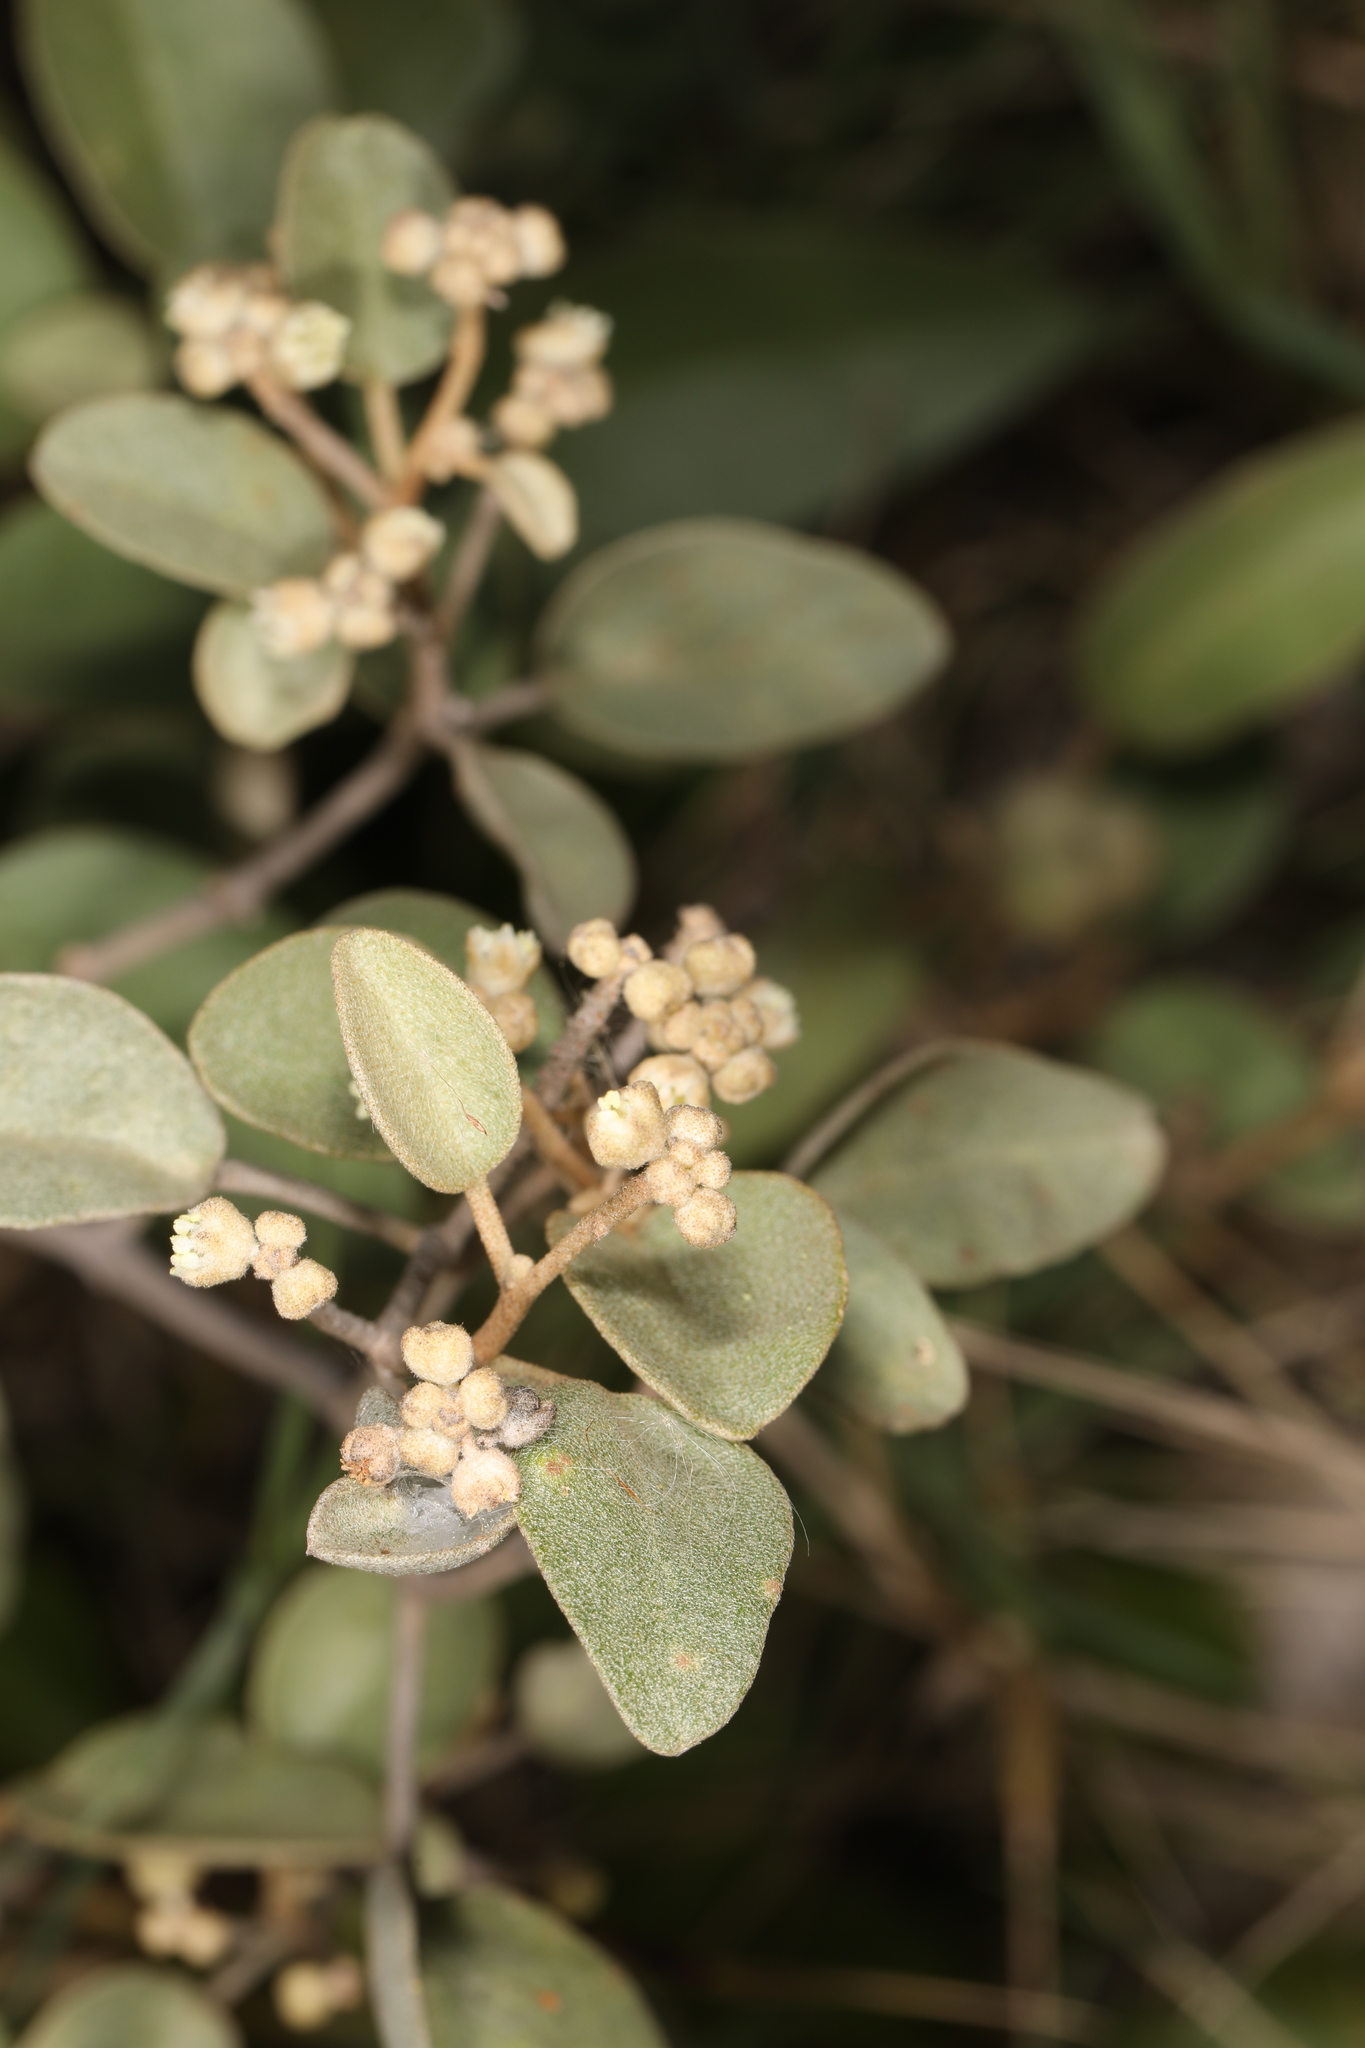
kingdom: Plantae
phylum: Tracheophyta
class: Magnoliopsida
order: Malpighiales
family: Euphorbiaceae
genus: Croton
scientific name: Croton punctatus
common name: Beach-tea
